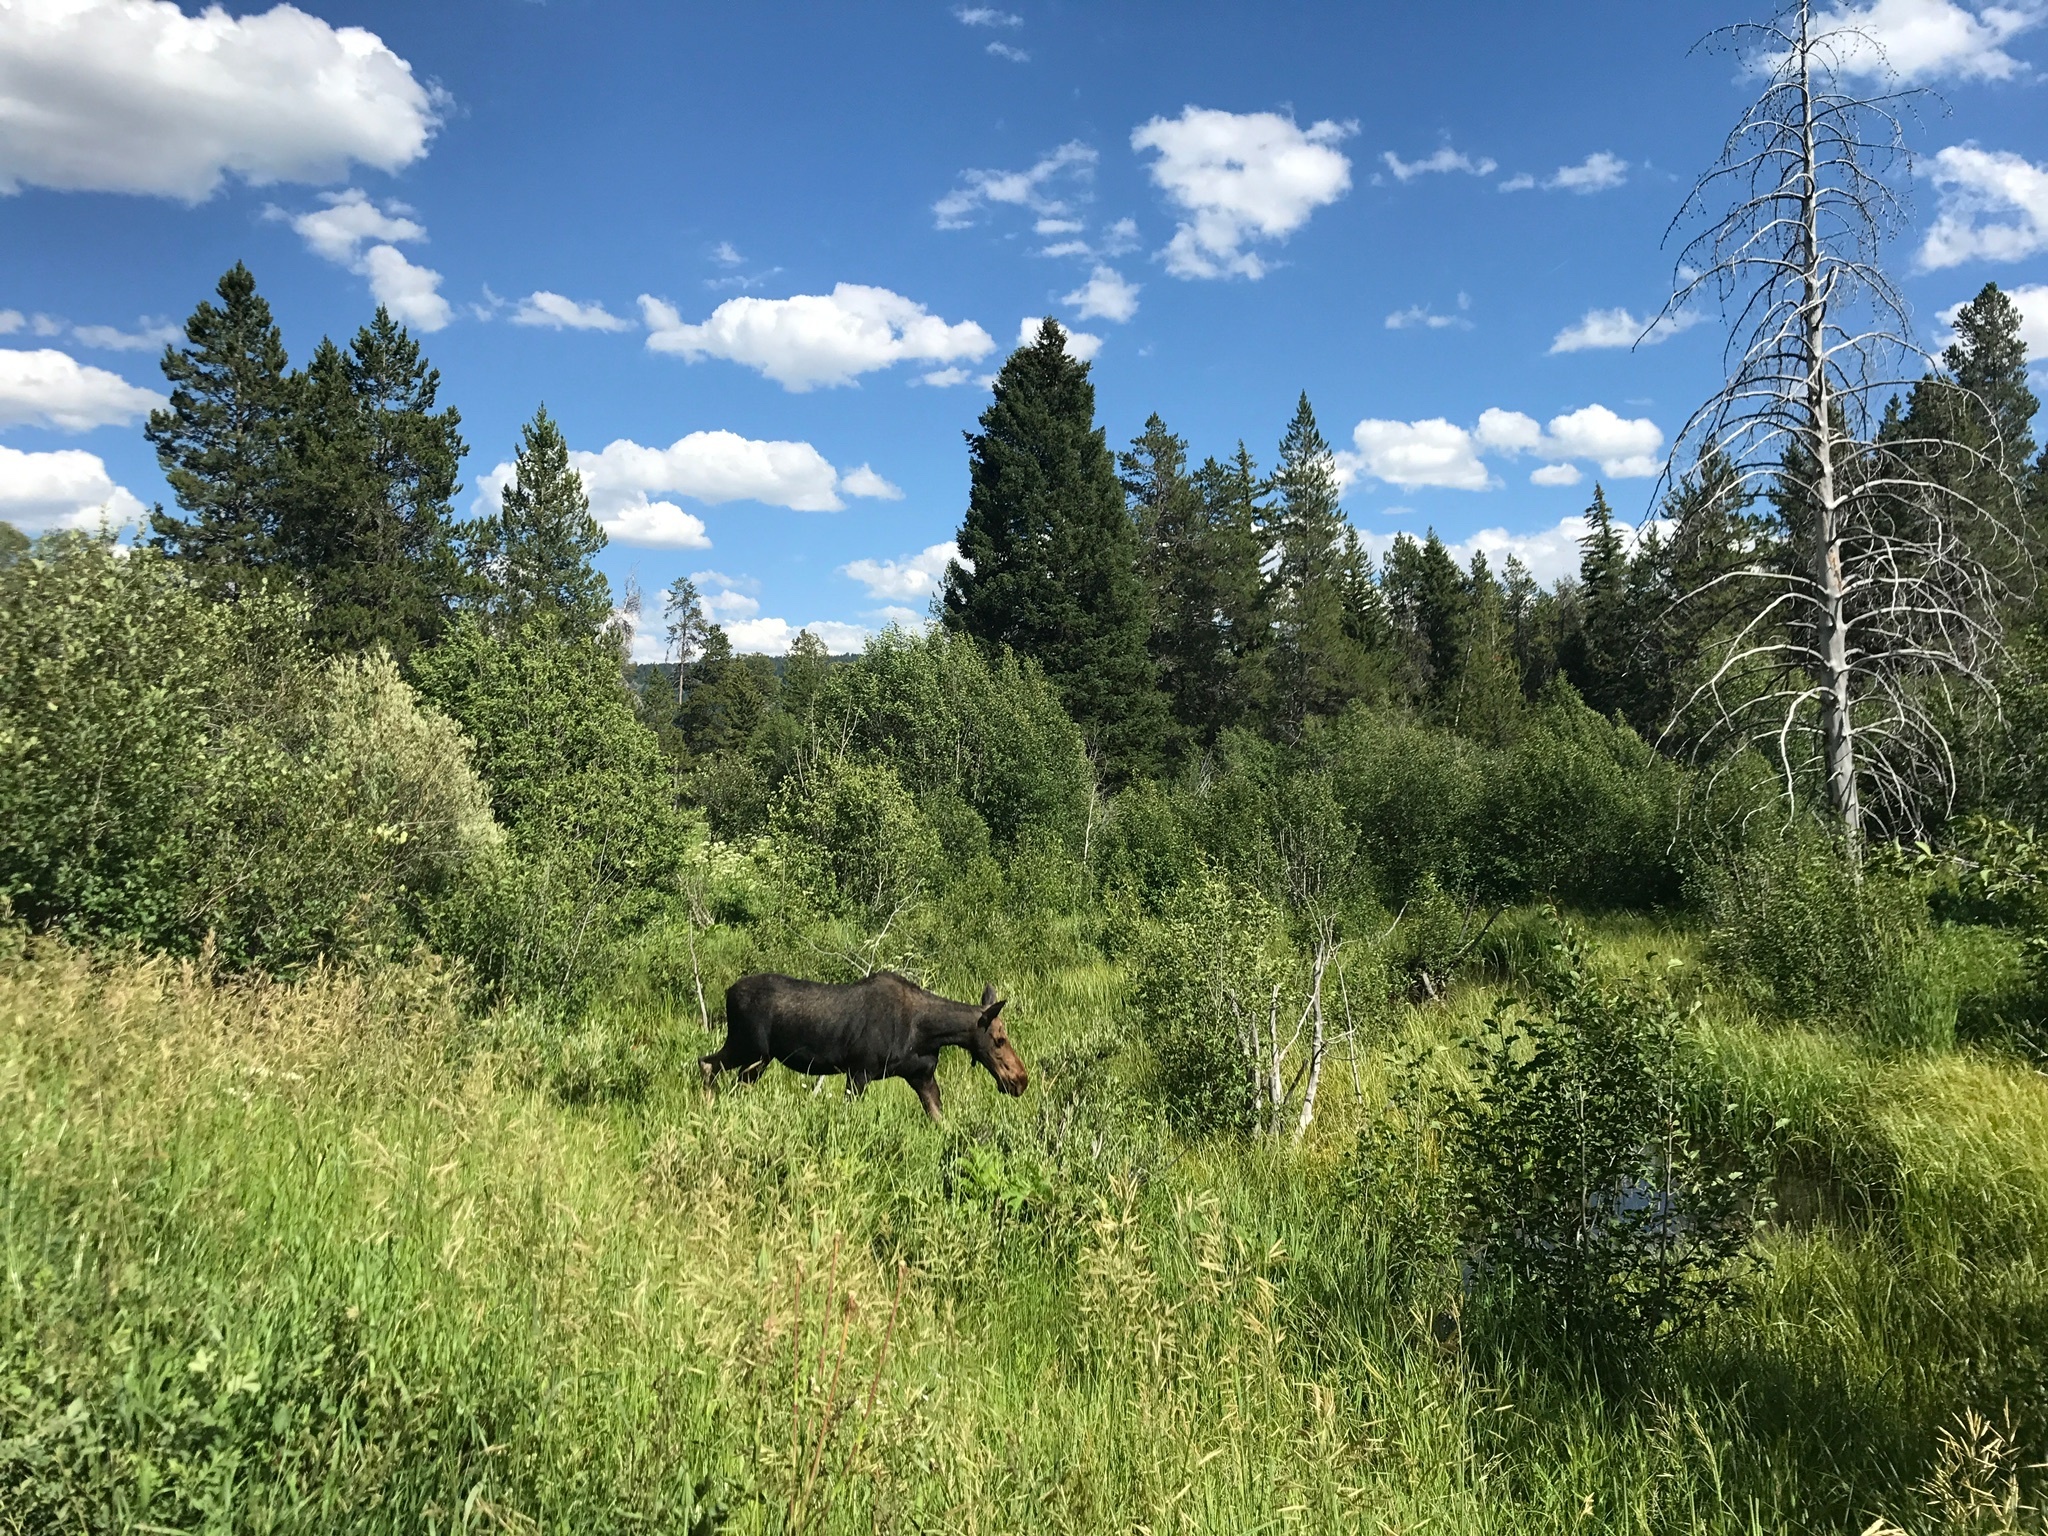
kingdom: Animalia
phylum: Chordata
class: Mammalia
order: Artiodactyla
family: Cervidae
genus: Alces
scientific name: Alces alces
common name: Moose
